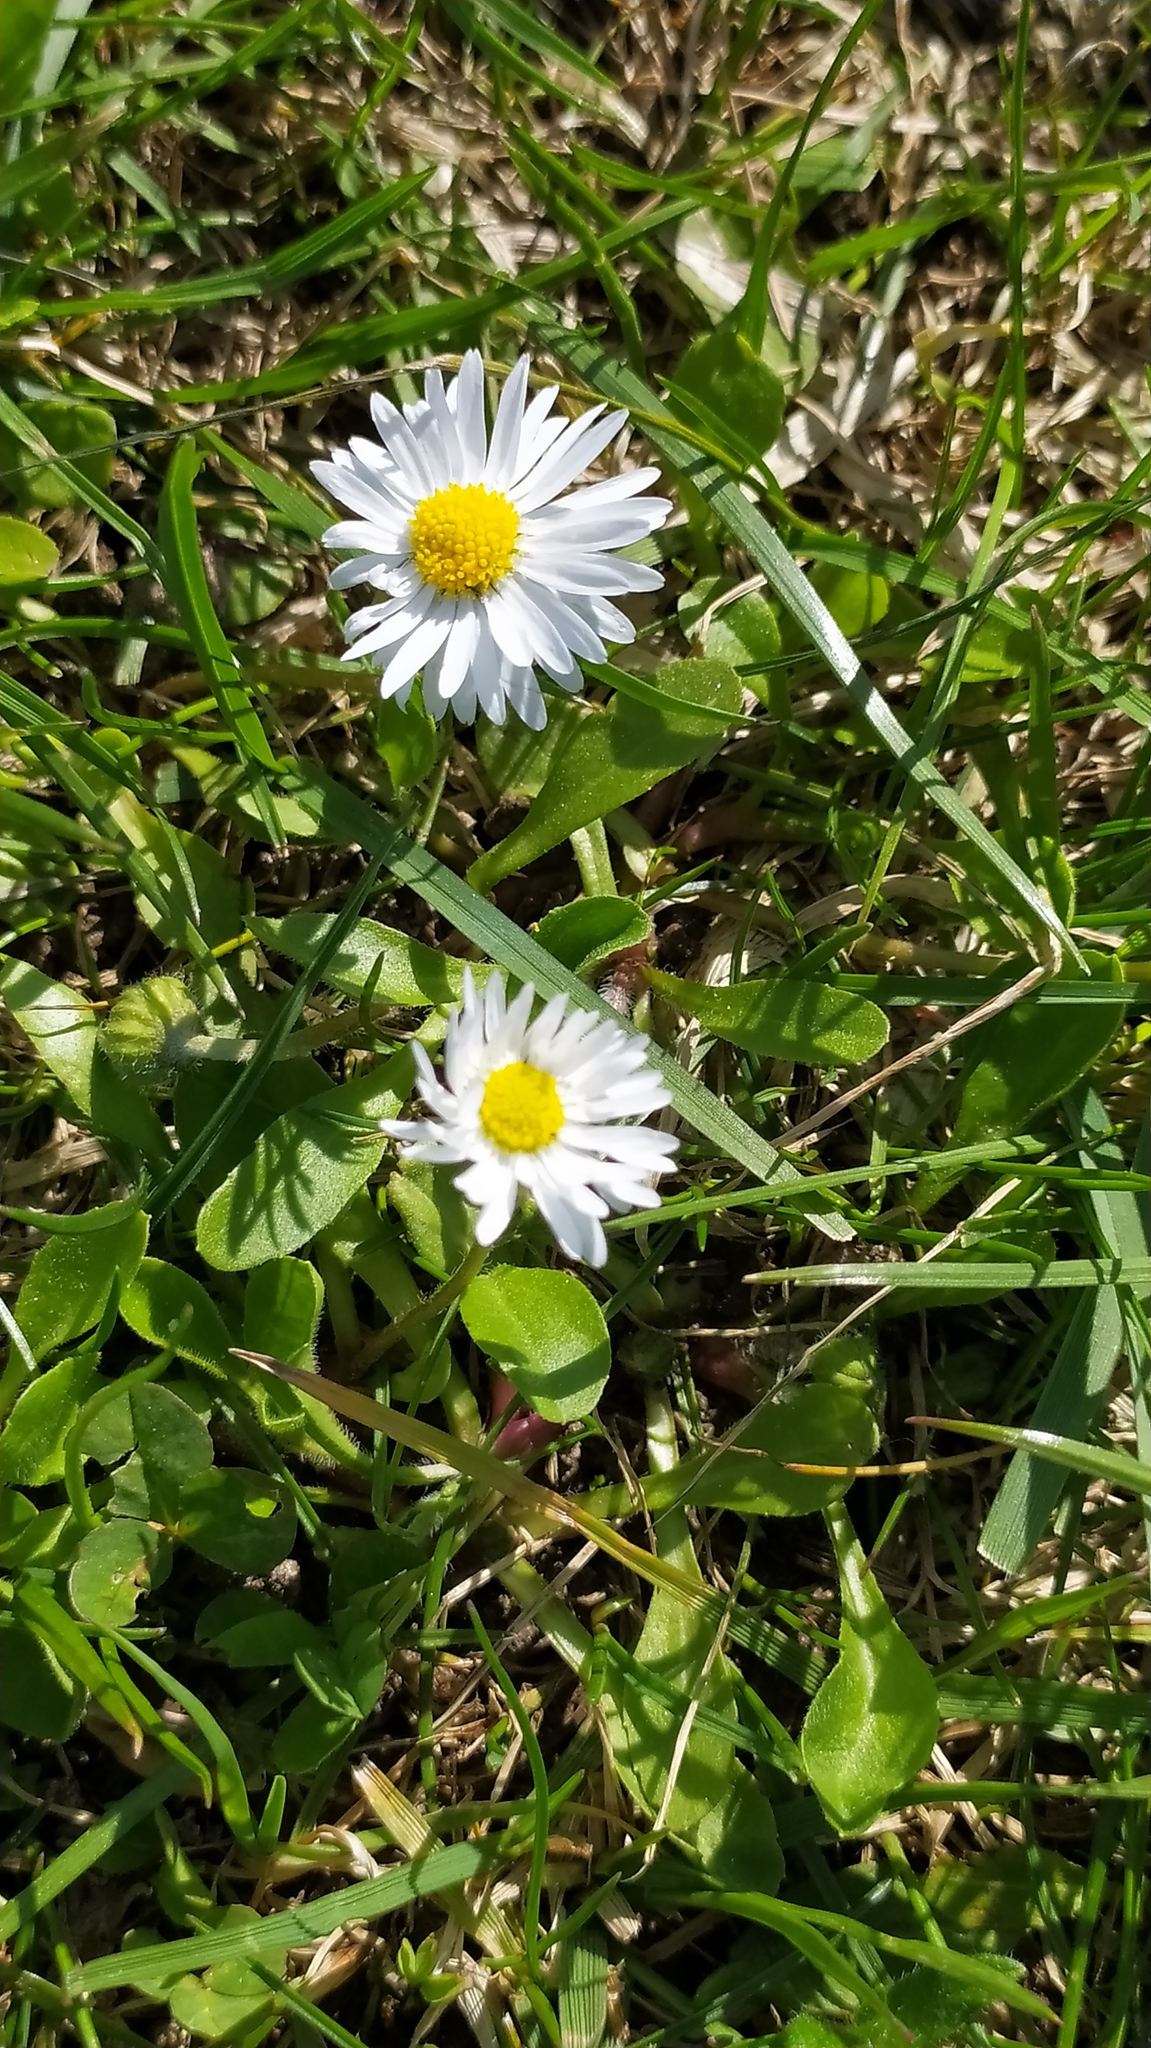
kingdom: Plantae
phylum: Tracheophyta
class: Magnoliopsida
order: Asterales
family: Asteraceae
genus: Bellis
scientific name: Bellis perennis
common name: Lawndaisy
